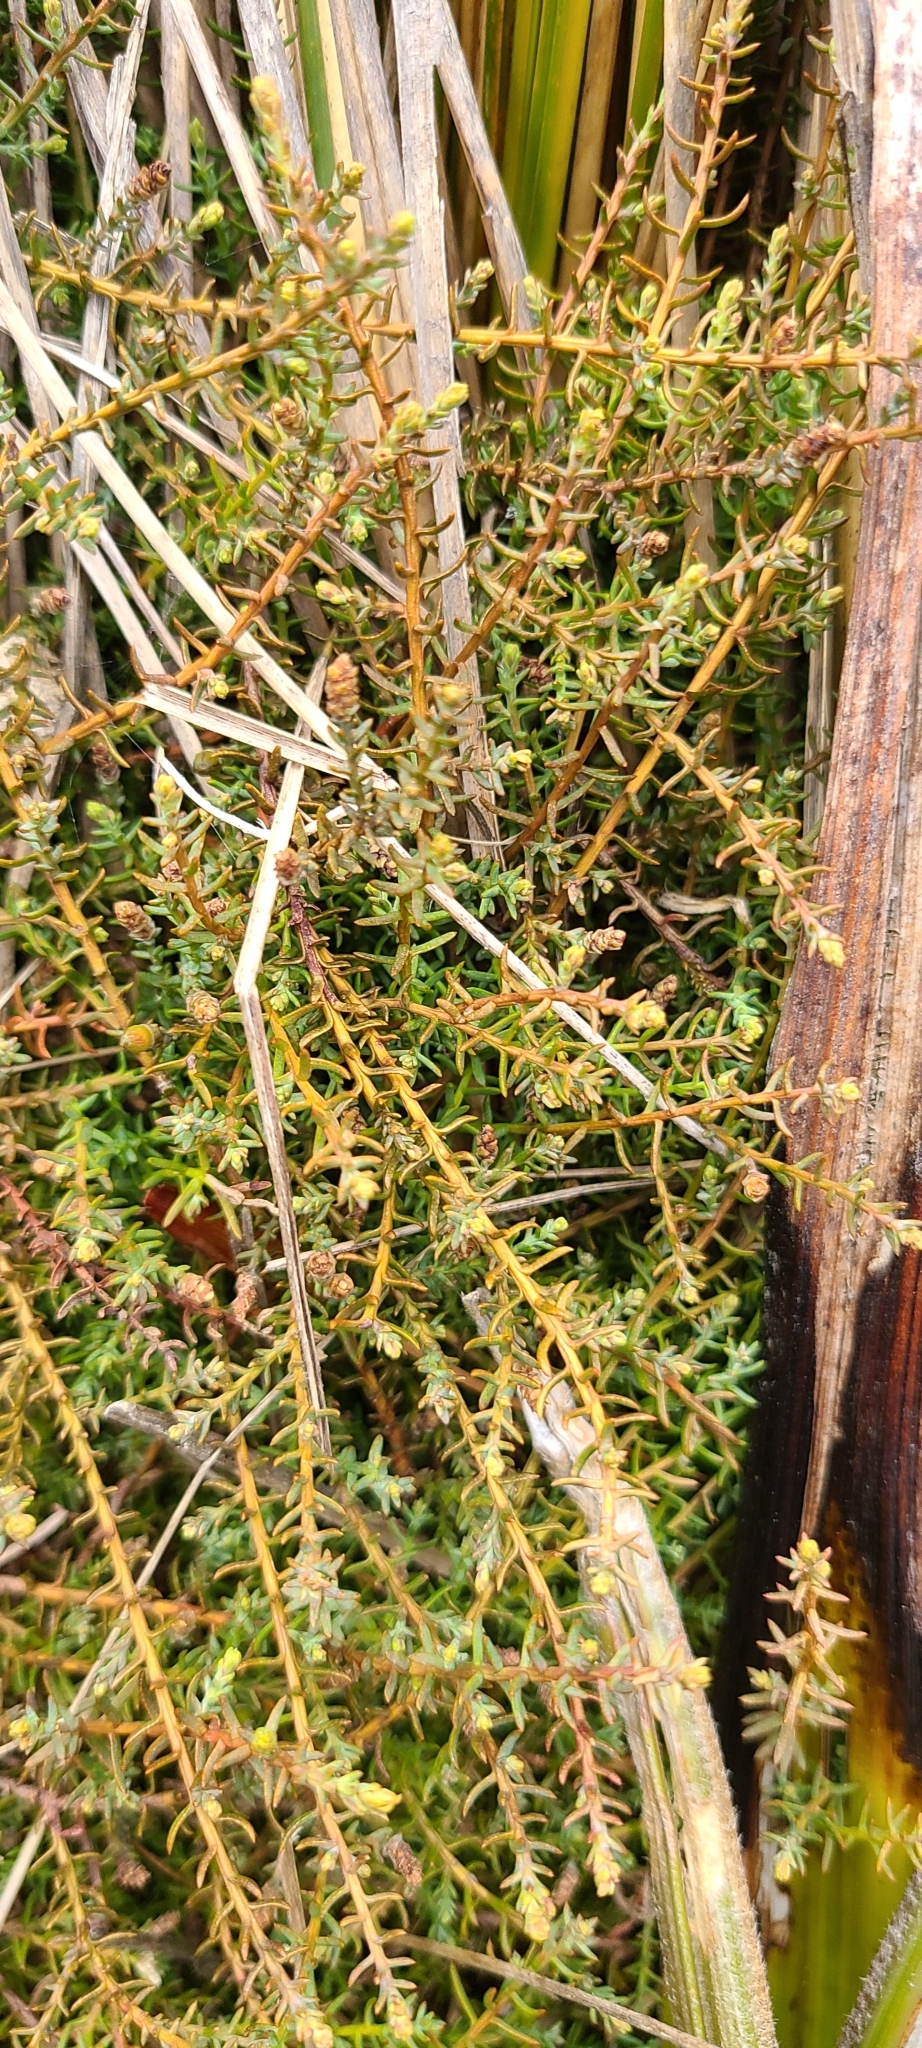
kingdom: Plantae
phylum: Tracheophyta
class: Pinopsida
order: Pinales
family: Podocarpaceae
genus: Lepidothamnus
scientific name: Lepidothamnus laxifolius
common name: Pygmy pine
